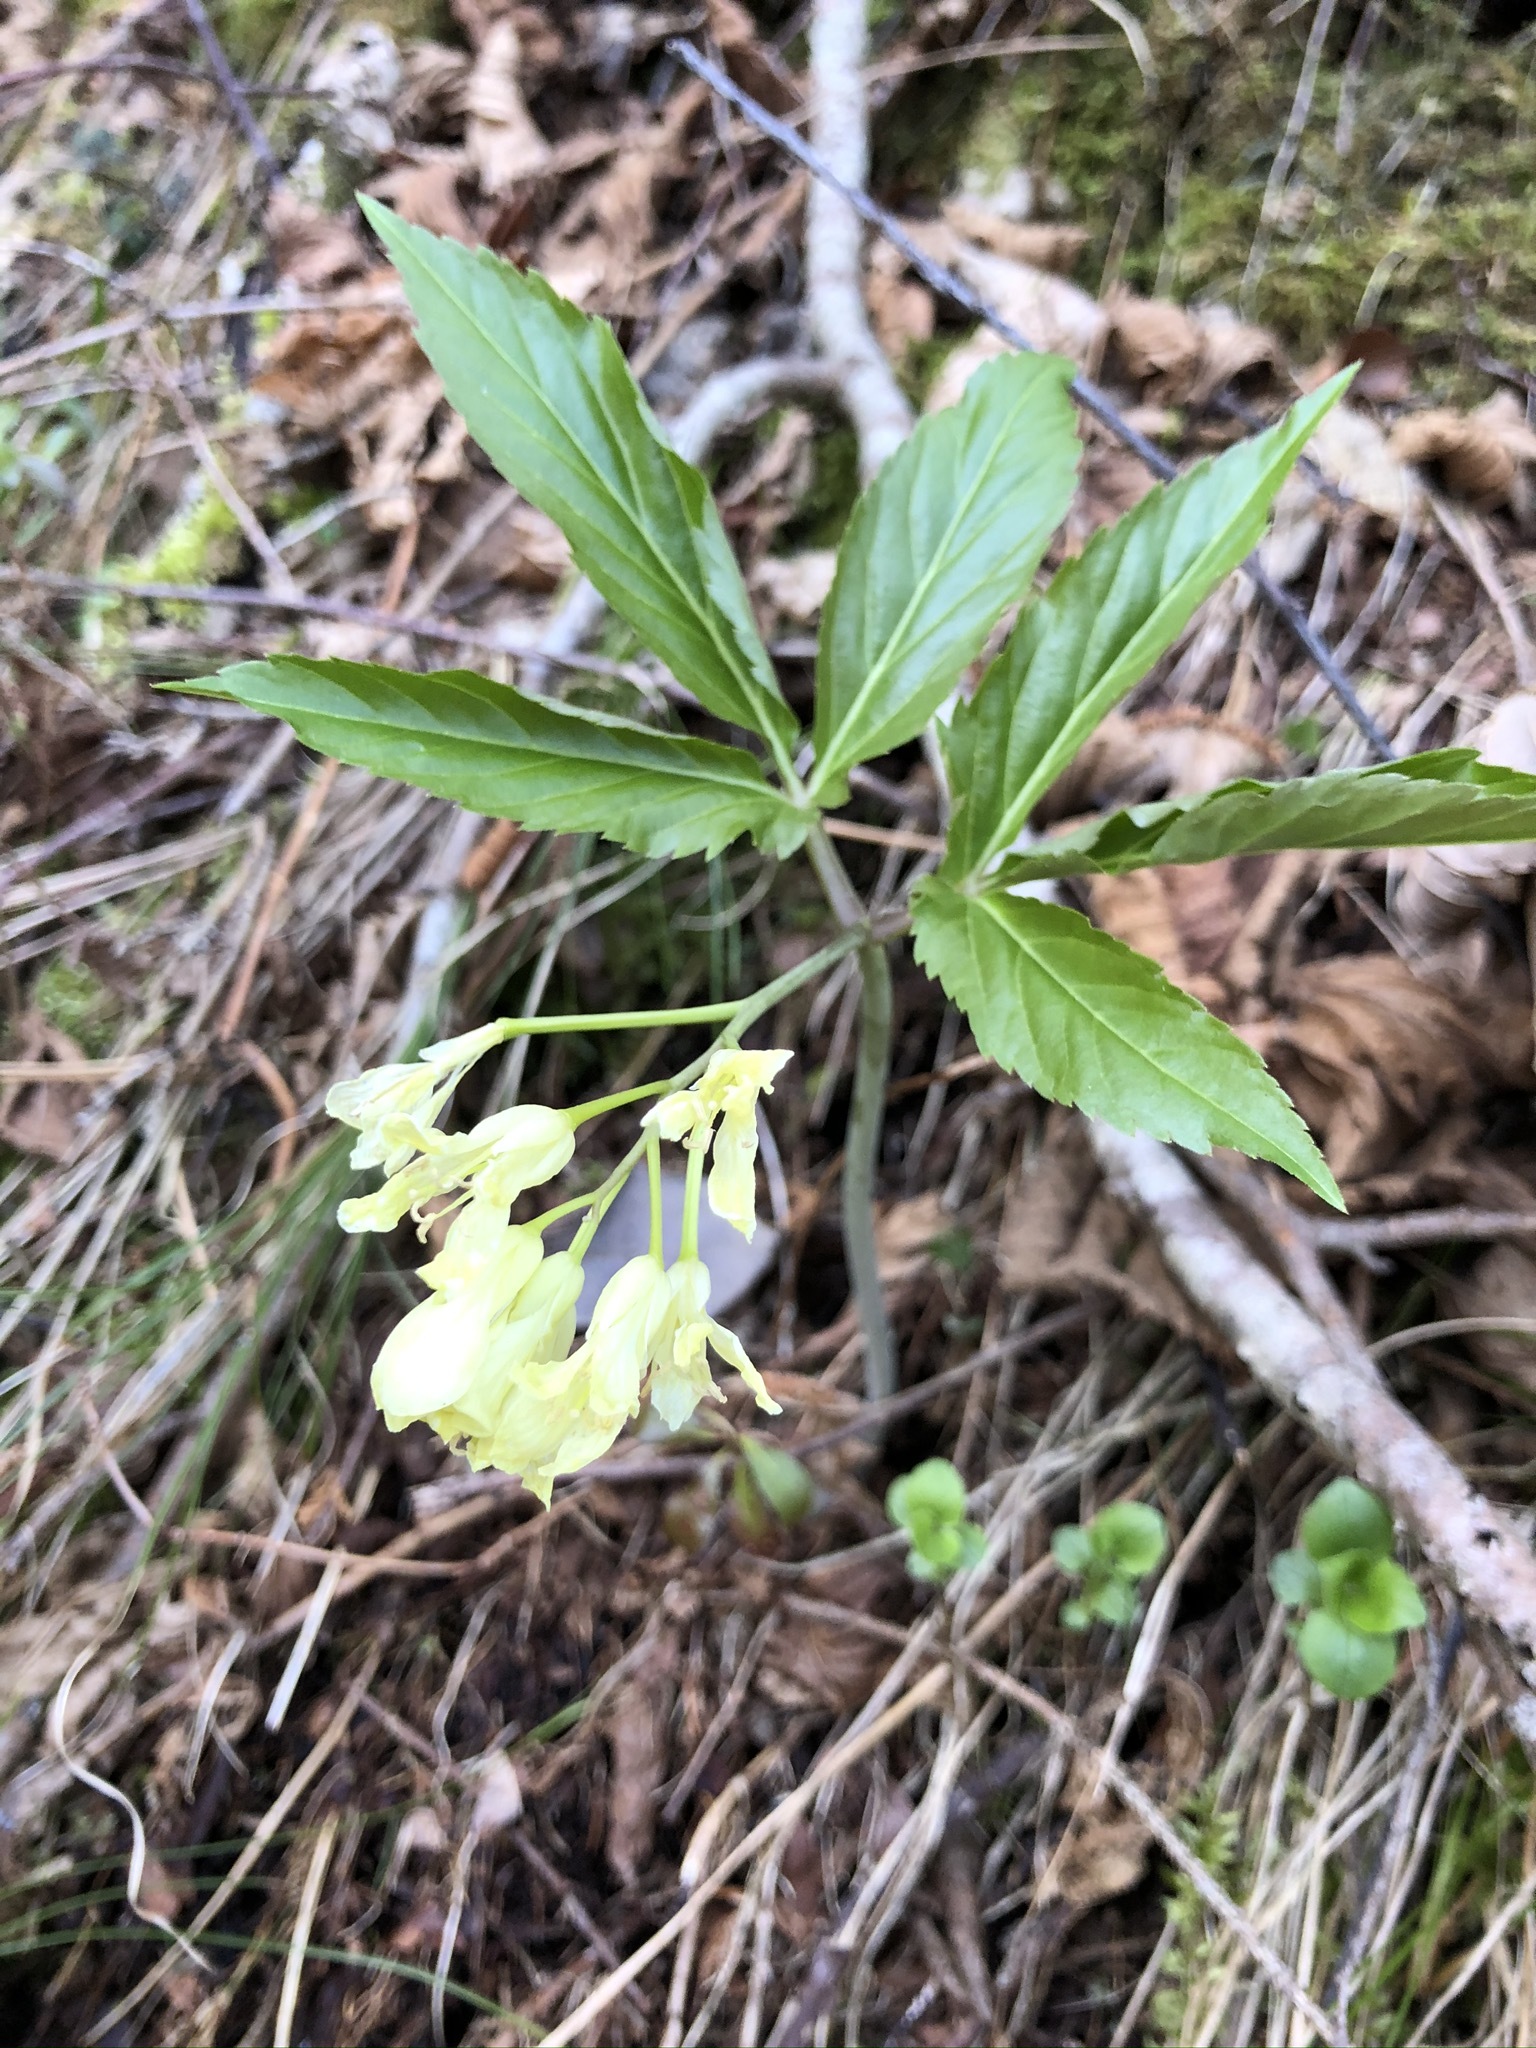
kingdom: Plantae
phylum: Tracheophyta
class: Magnoliopsida
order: Brassicales
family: Brassicaceae
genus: Cardamine
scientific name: Cardamine enneaphyllos
